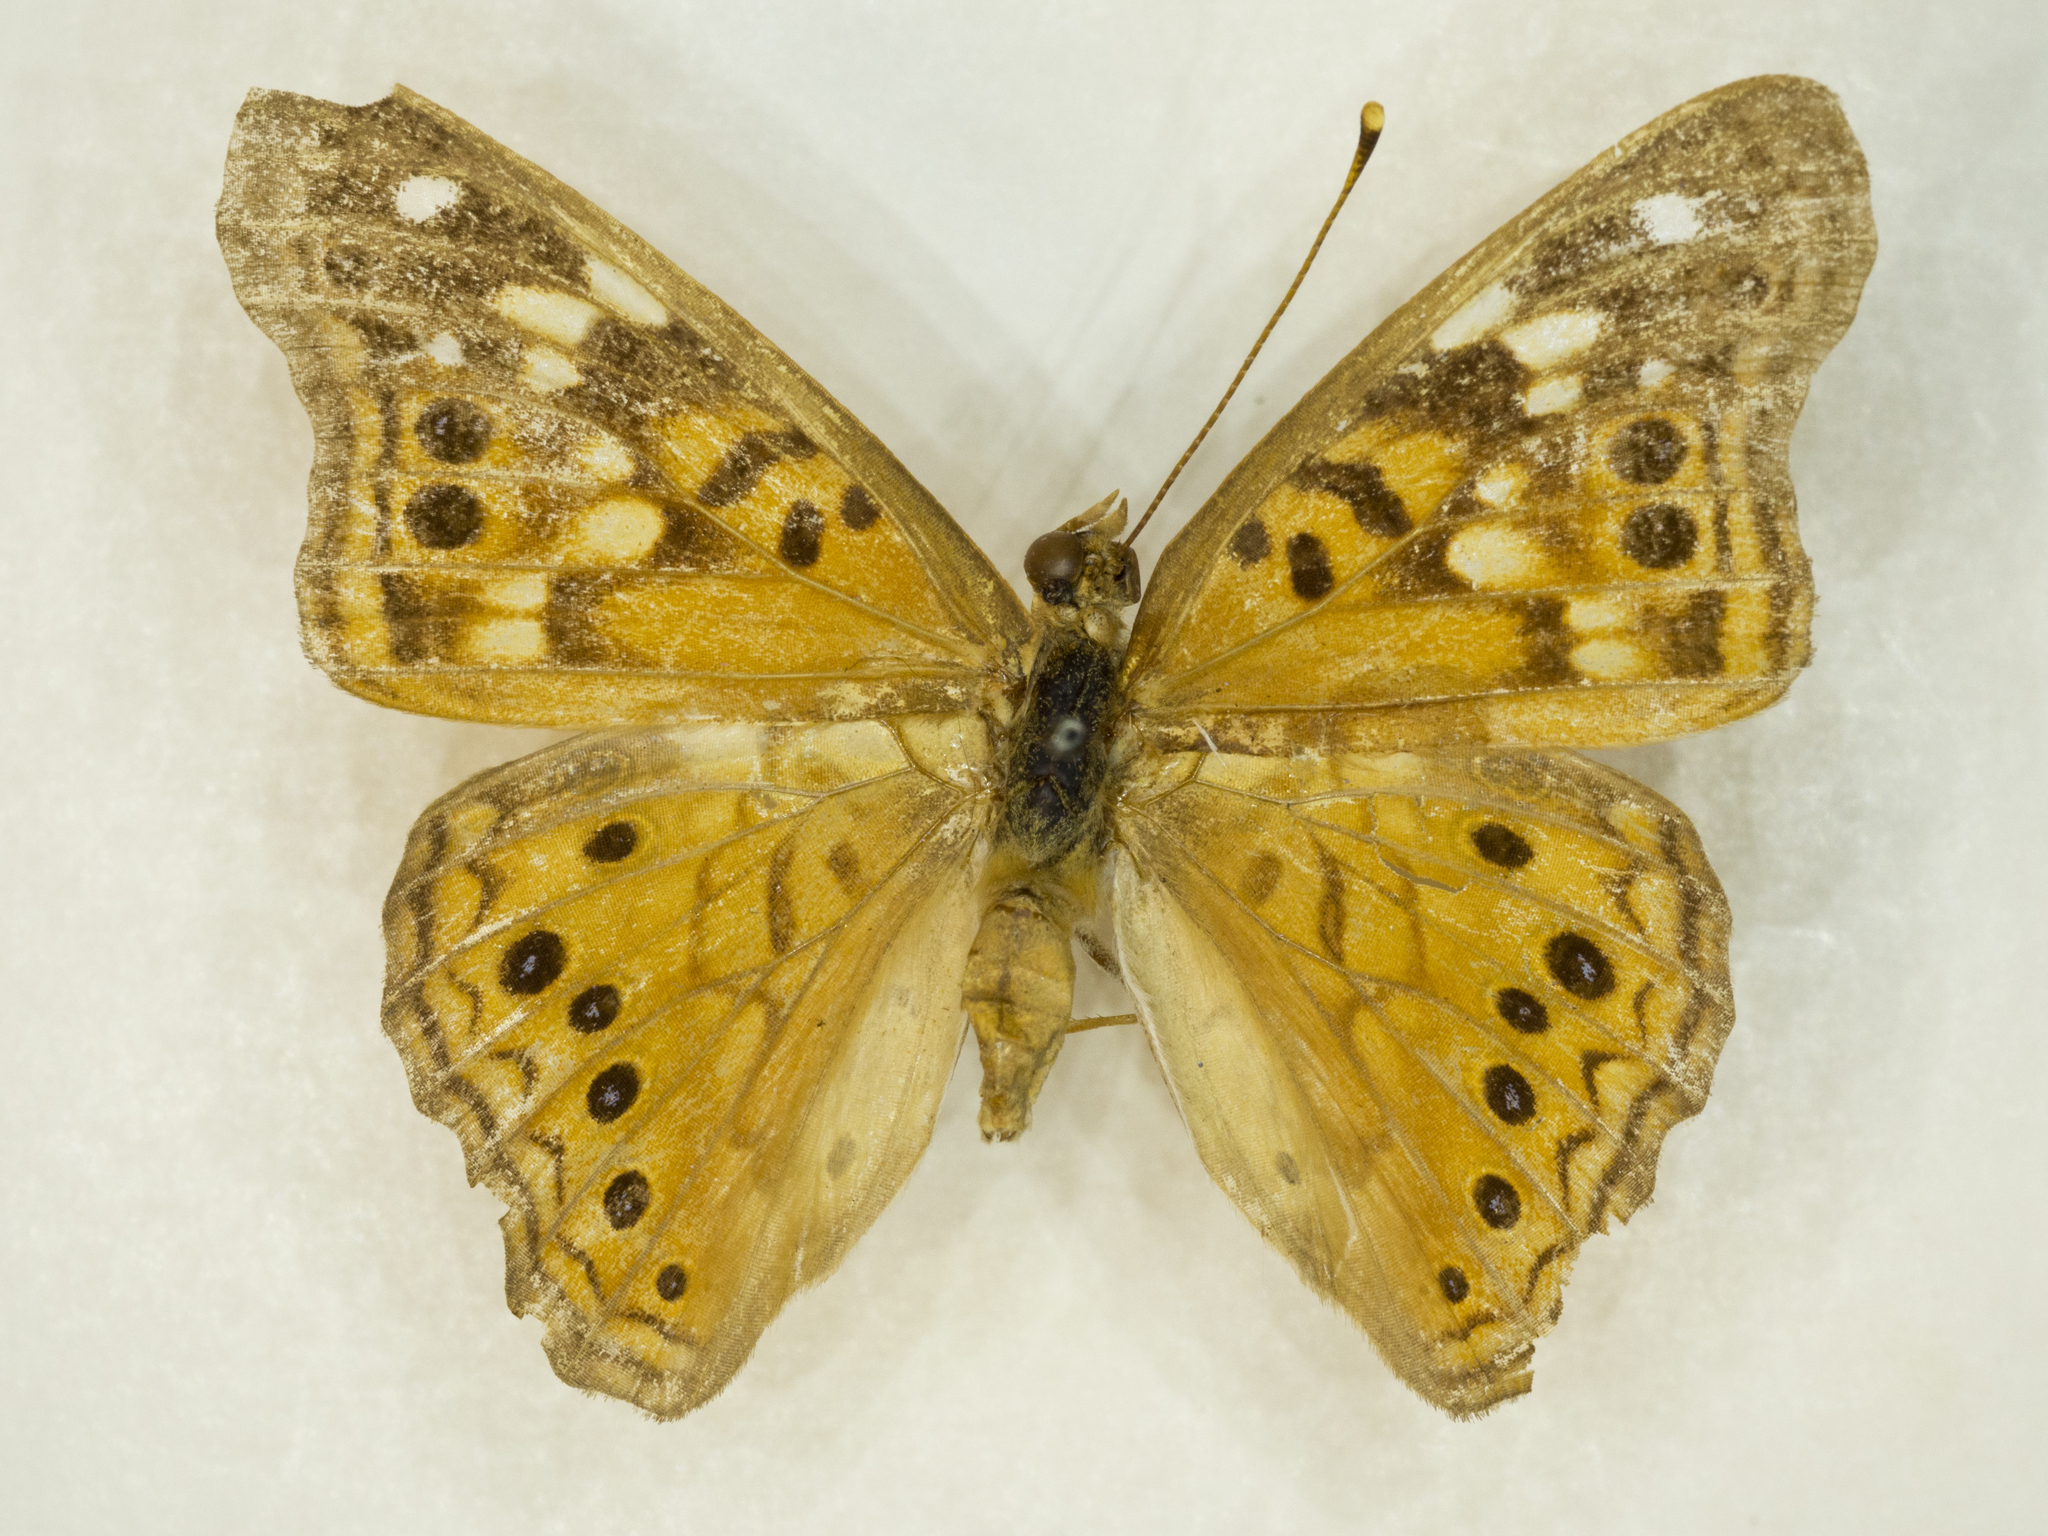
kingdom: Animalia
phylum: Arthropoda
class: Insecta
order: Lepidoptera
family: Nymphalidae
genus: Asterocampa
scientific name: Asterocampa celtis
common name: Hackberry emperor
